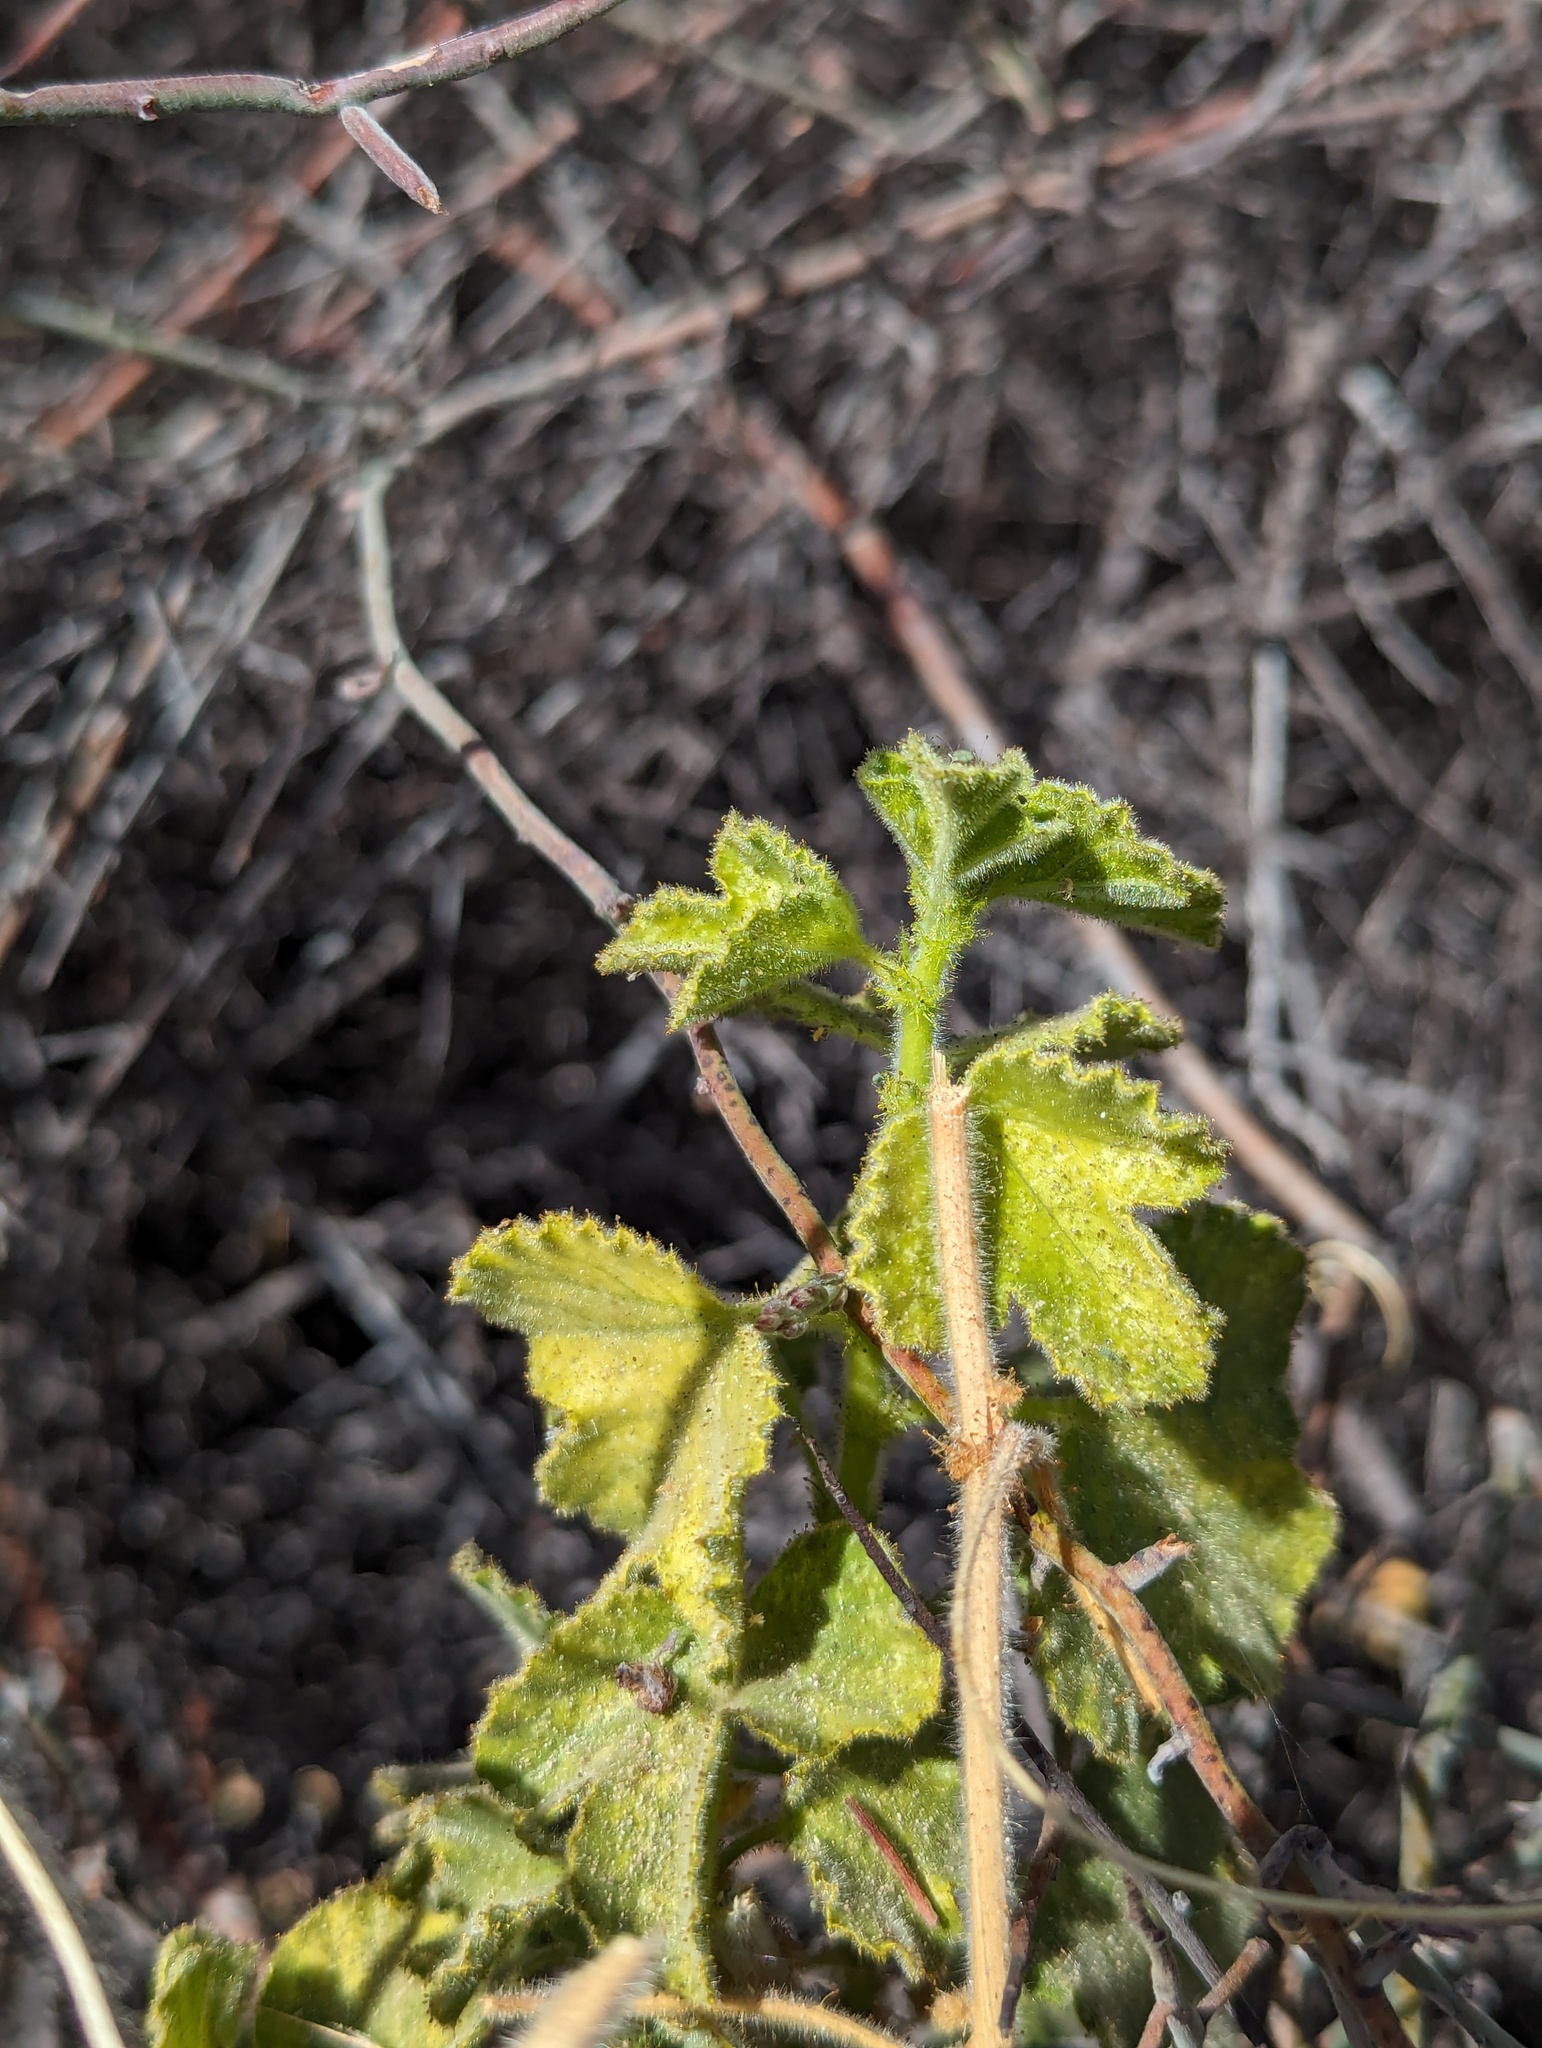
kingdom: Plantae
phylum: Tracheophyta
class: Magnoliopsida
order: Malpighiales
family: Passifloraceae
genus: Passiflora
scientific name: Passiflora palmeri
